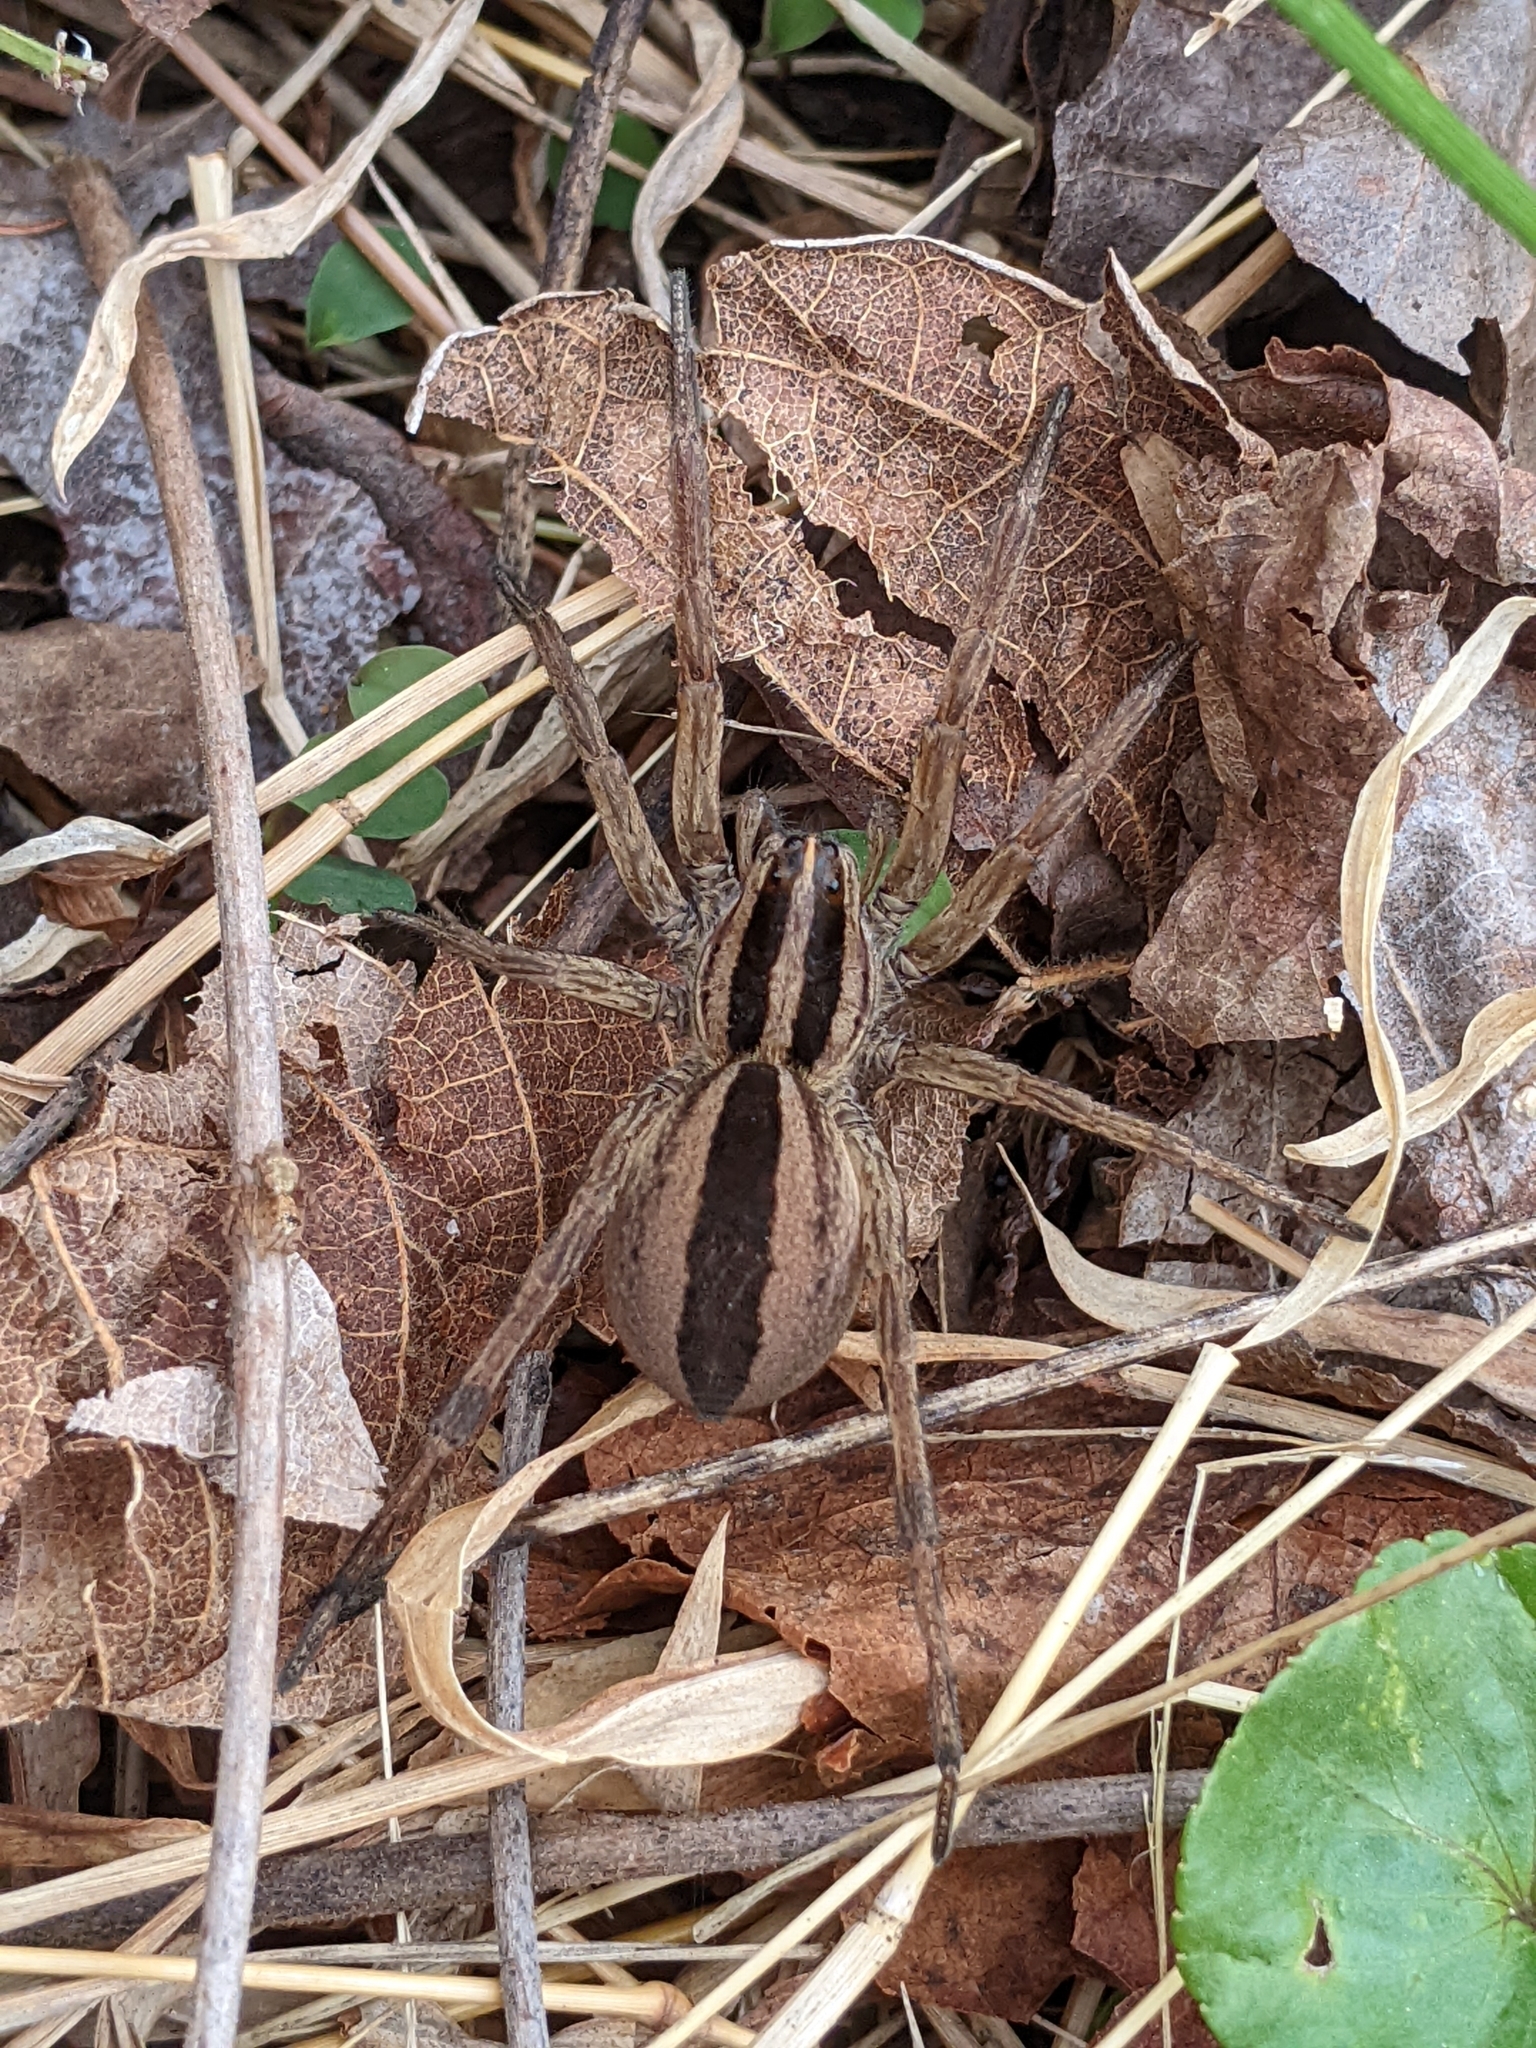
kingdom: Animalia
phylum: Arthropoda
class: Arachnida
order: Araneae
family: Lycosidae
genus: Rabidosa
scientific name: Rabidosa punctulata
